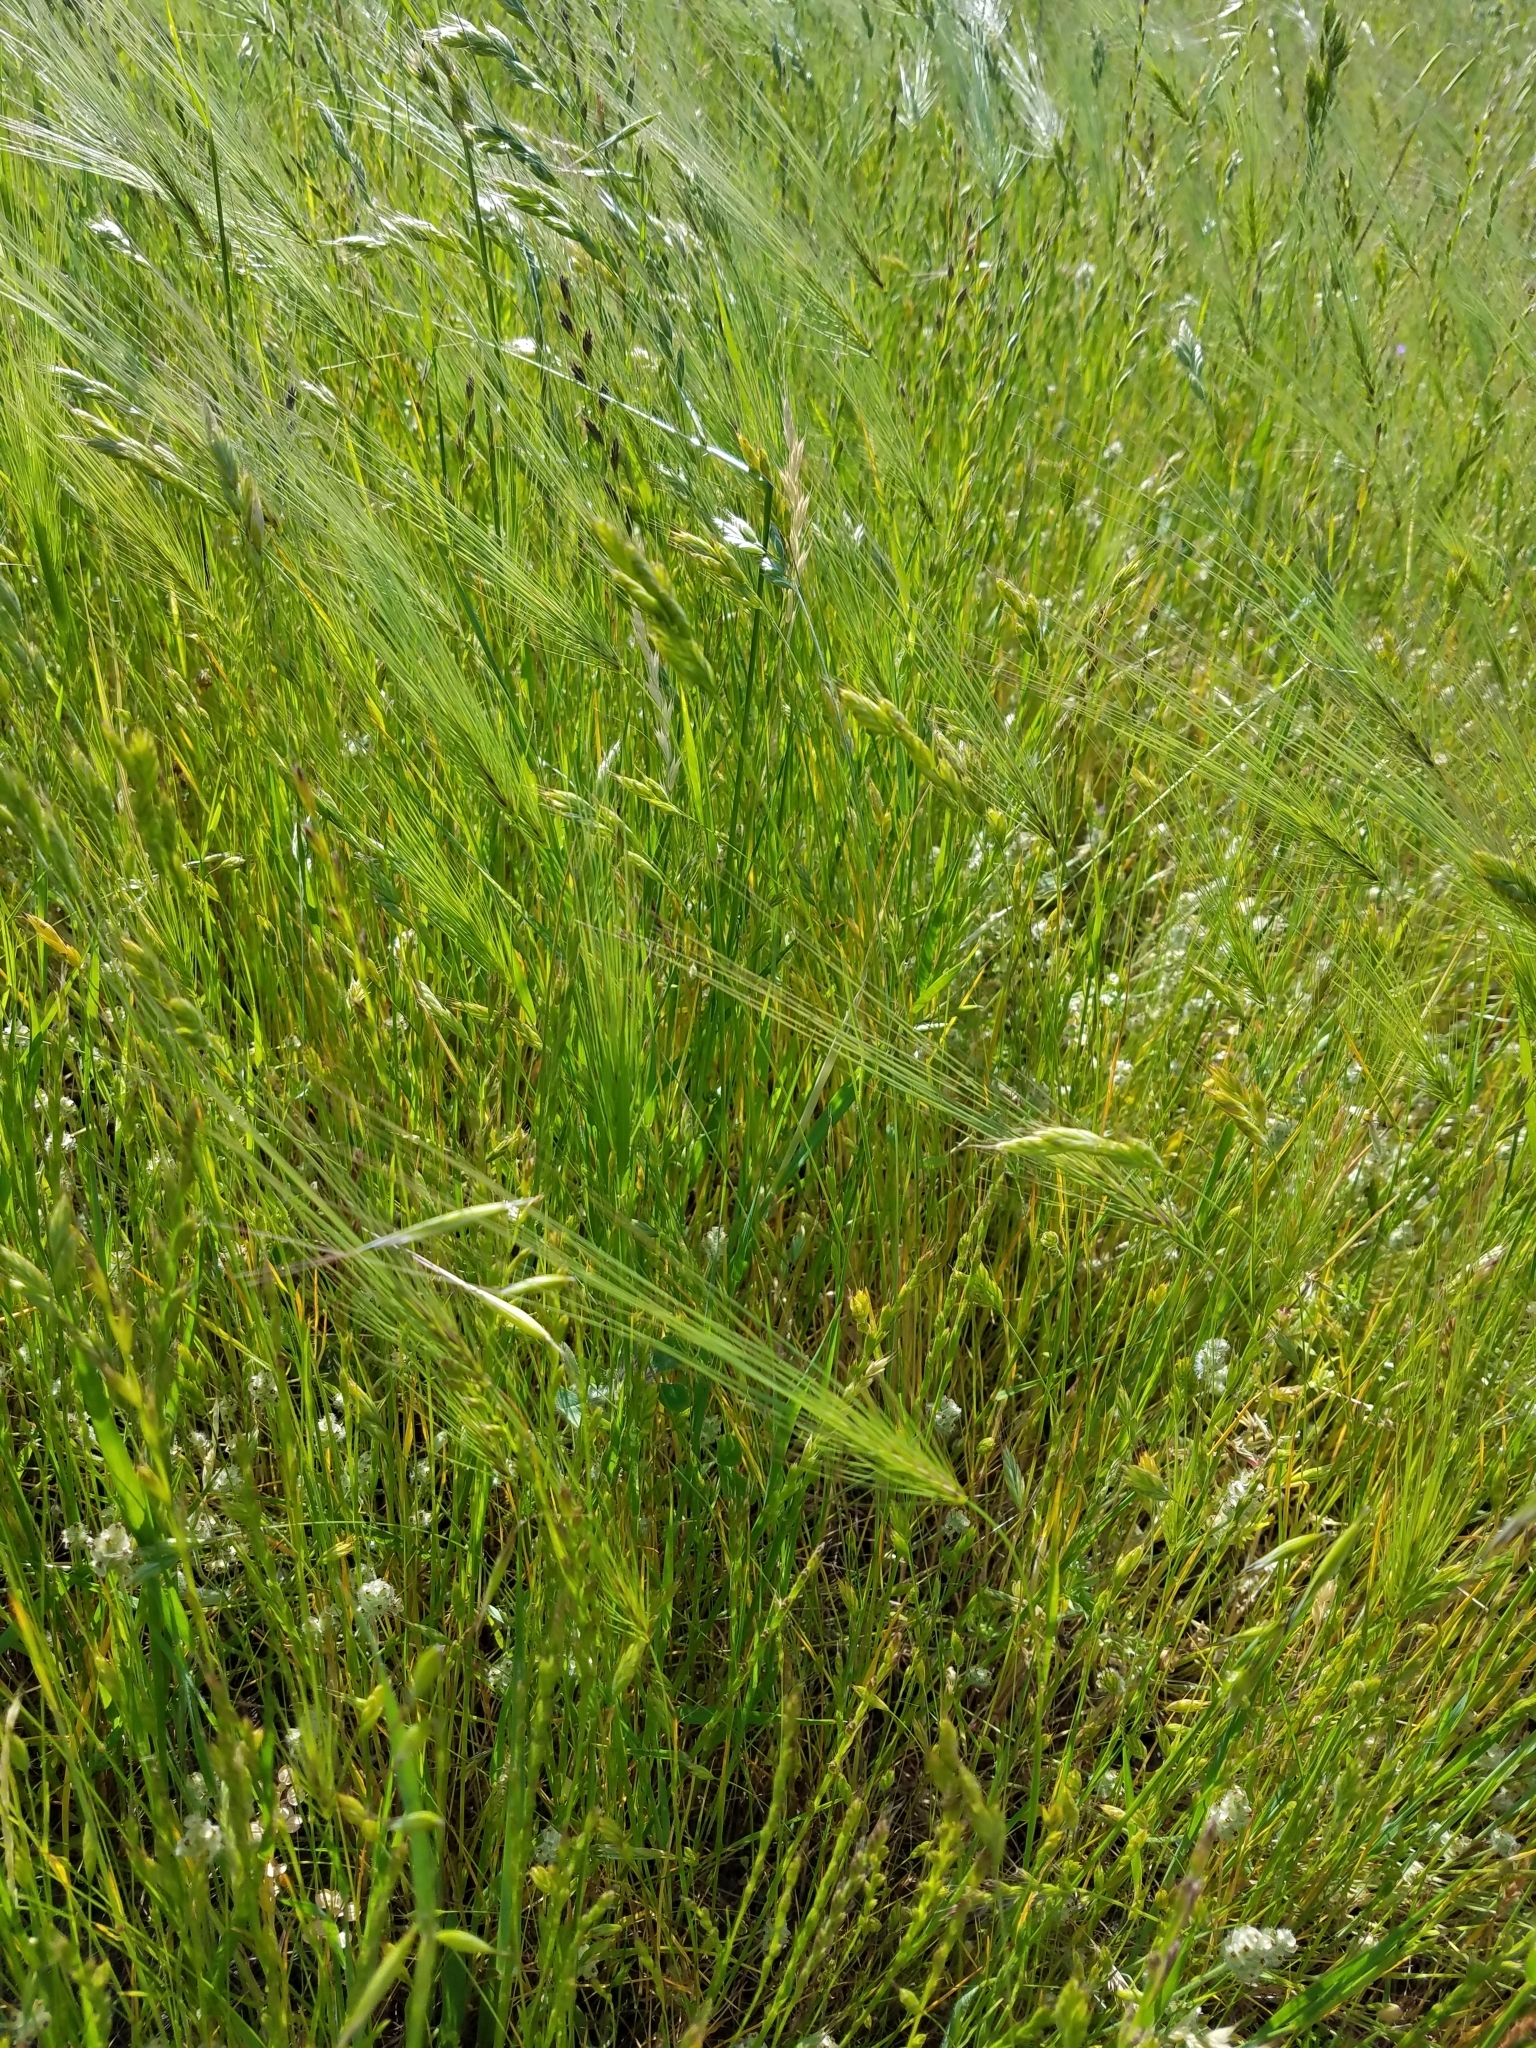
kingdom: Plantae
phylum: Tracheophyta
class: Liliopsida
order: Poales
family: Poaceae
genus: Taeniatherum
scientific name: Taeniatherum caput-medusae
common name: Medusahead
